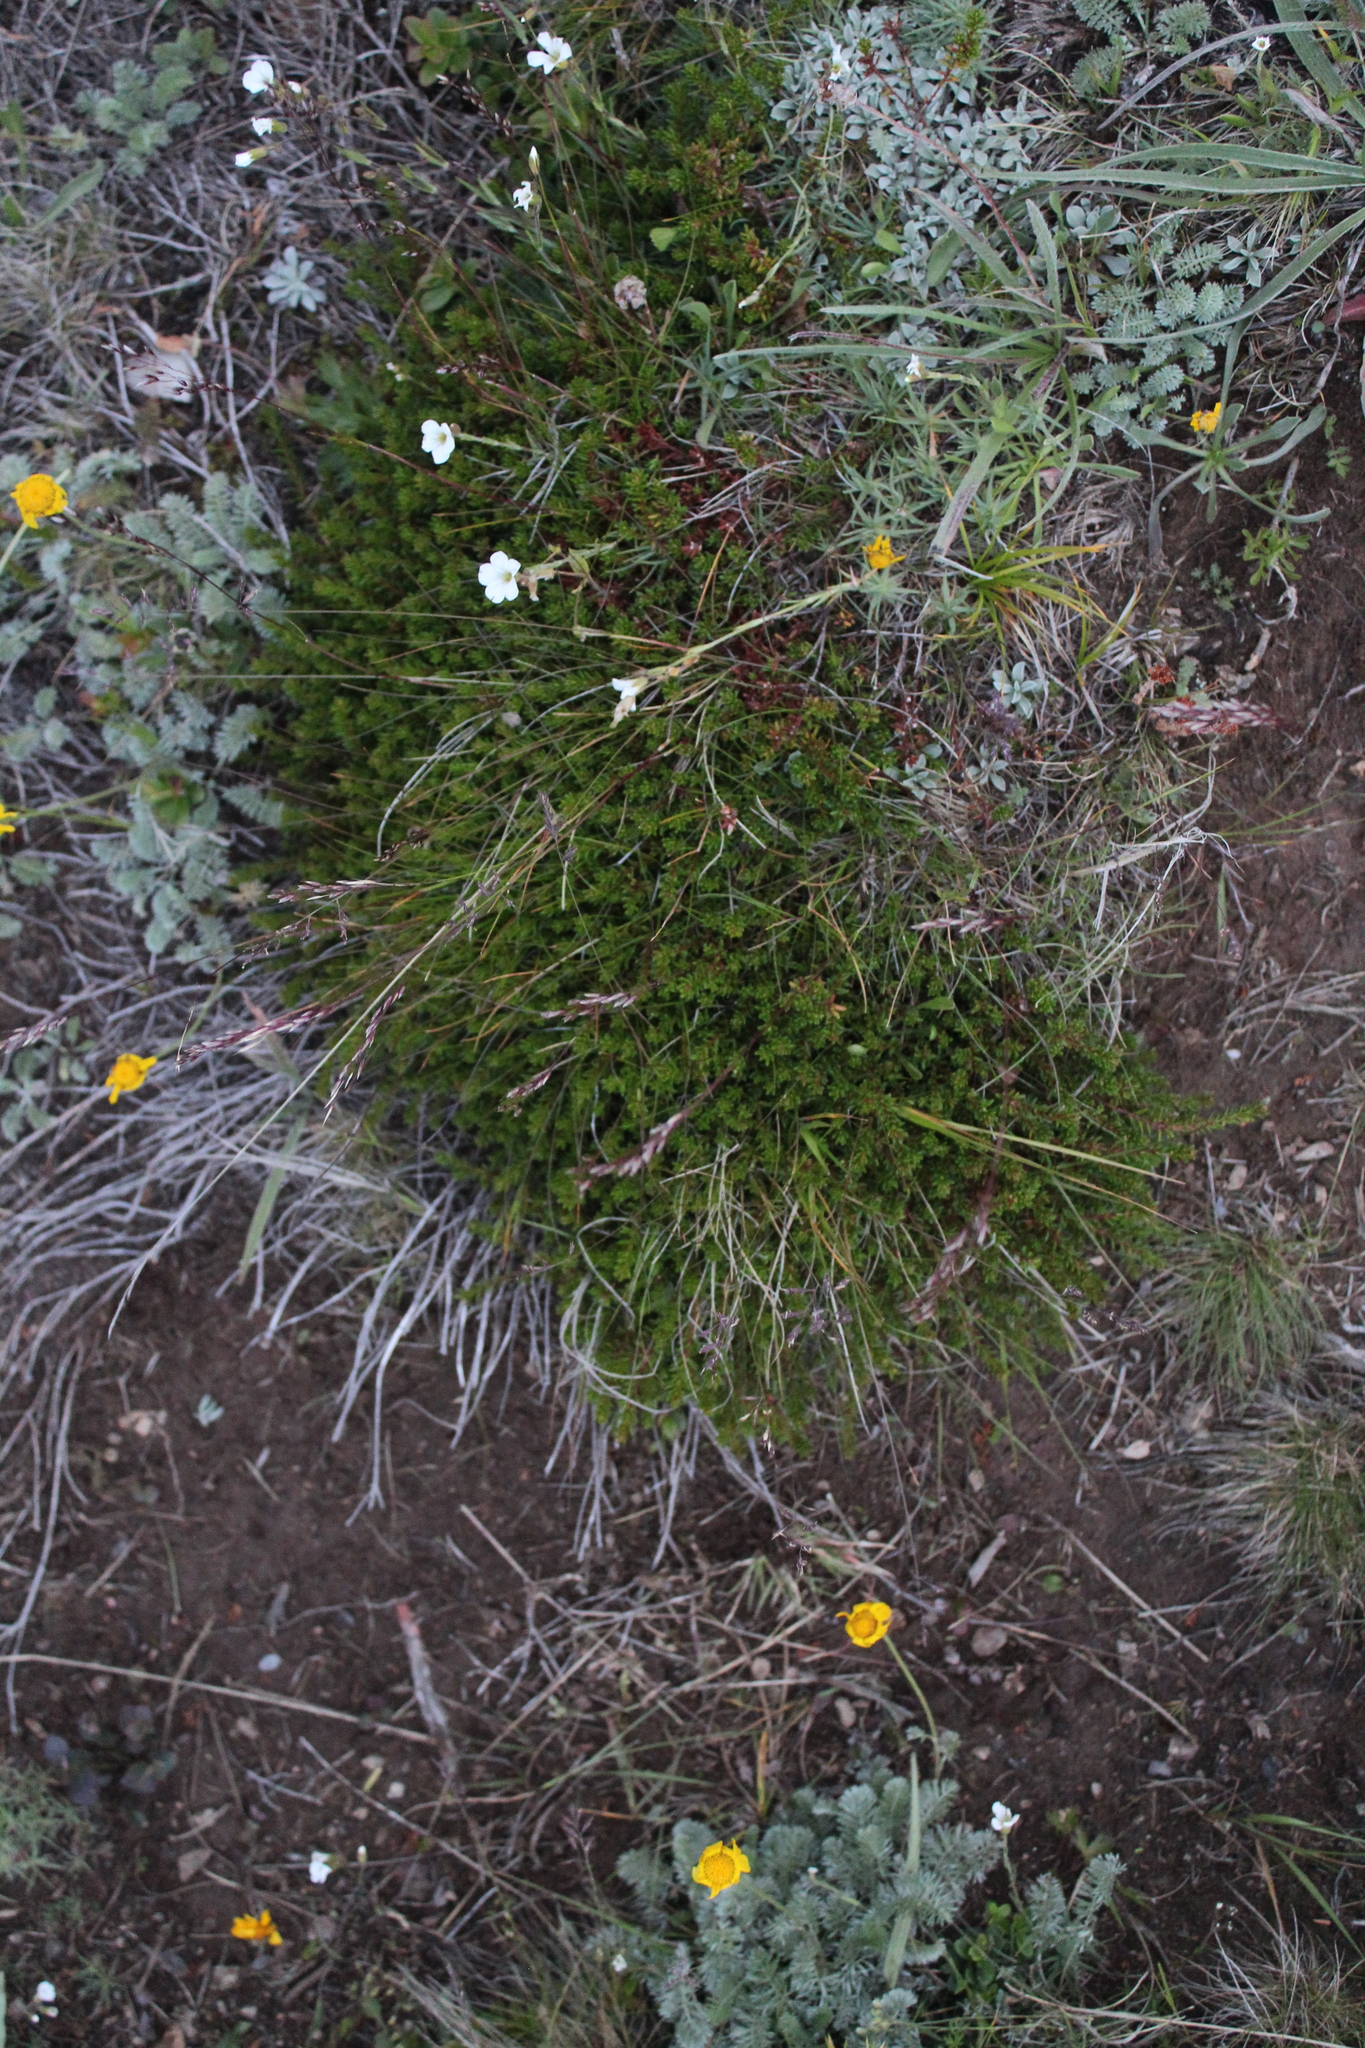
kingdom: Plantae
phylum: Tracheophyta
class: Magnoliopsida
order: Ericales
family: Ericaceae
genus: Empetrum
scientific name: Empetrum nigrum
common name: Black crowberry
